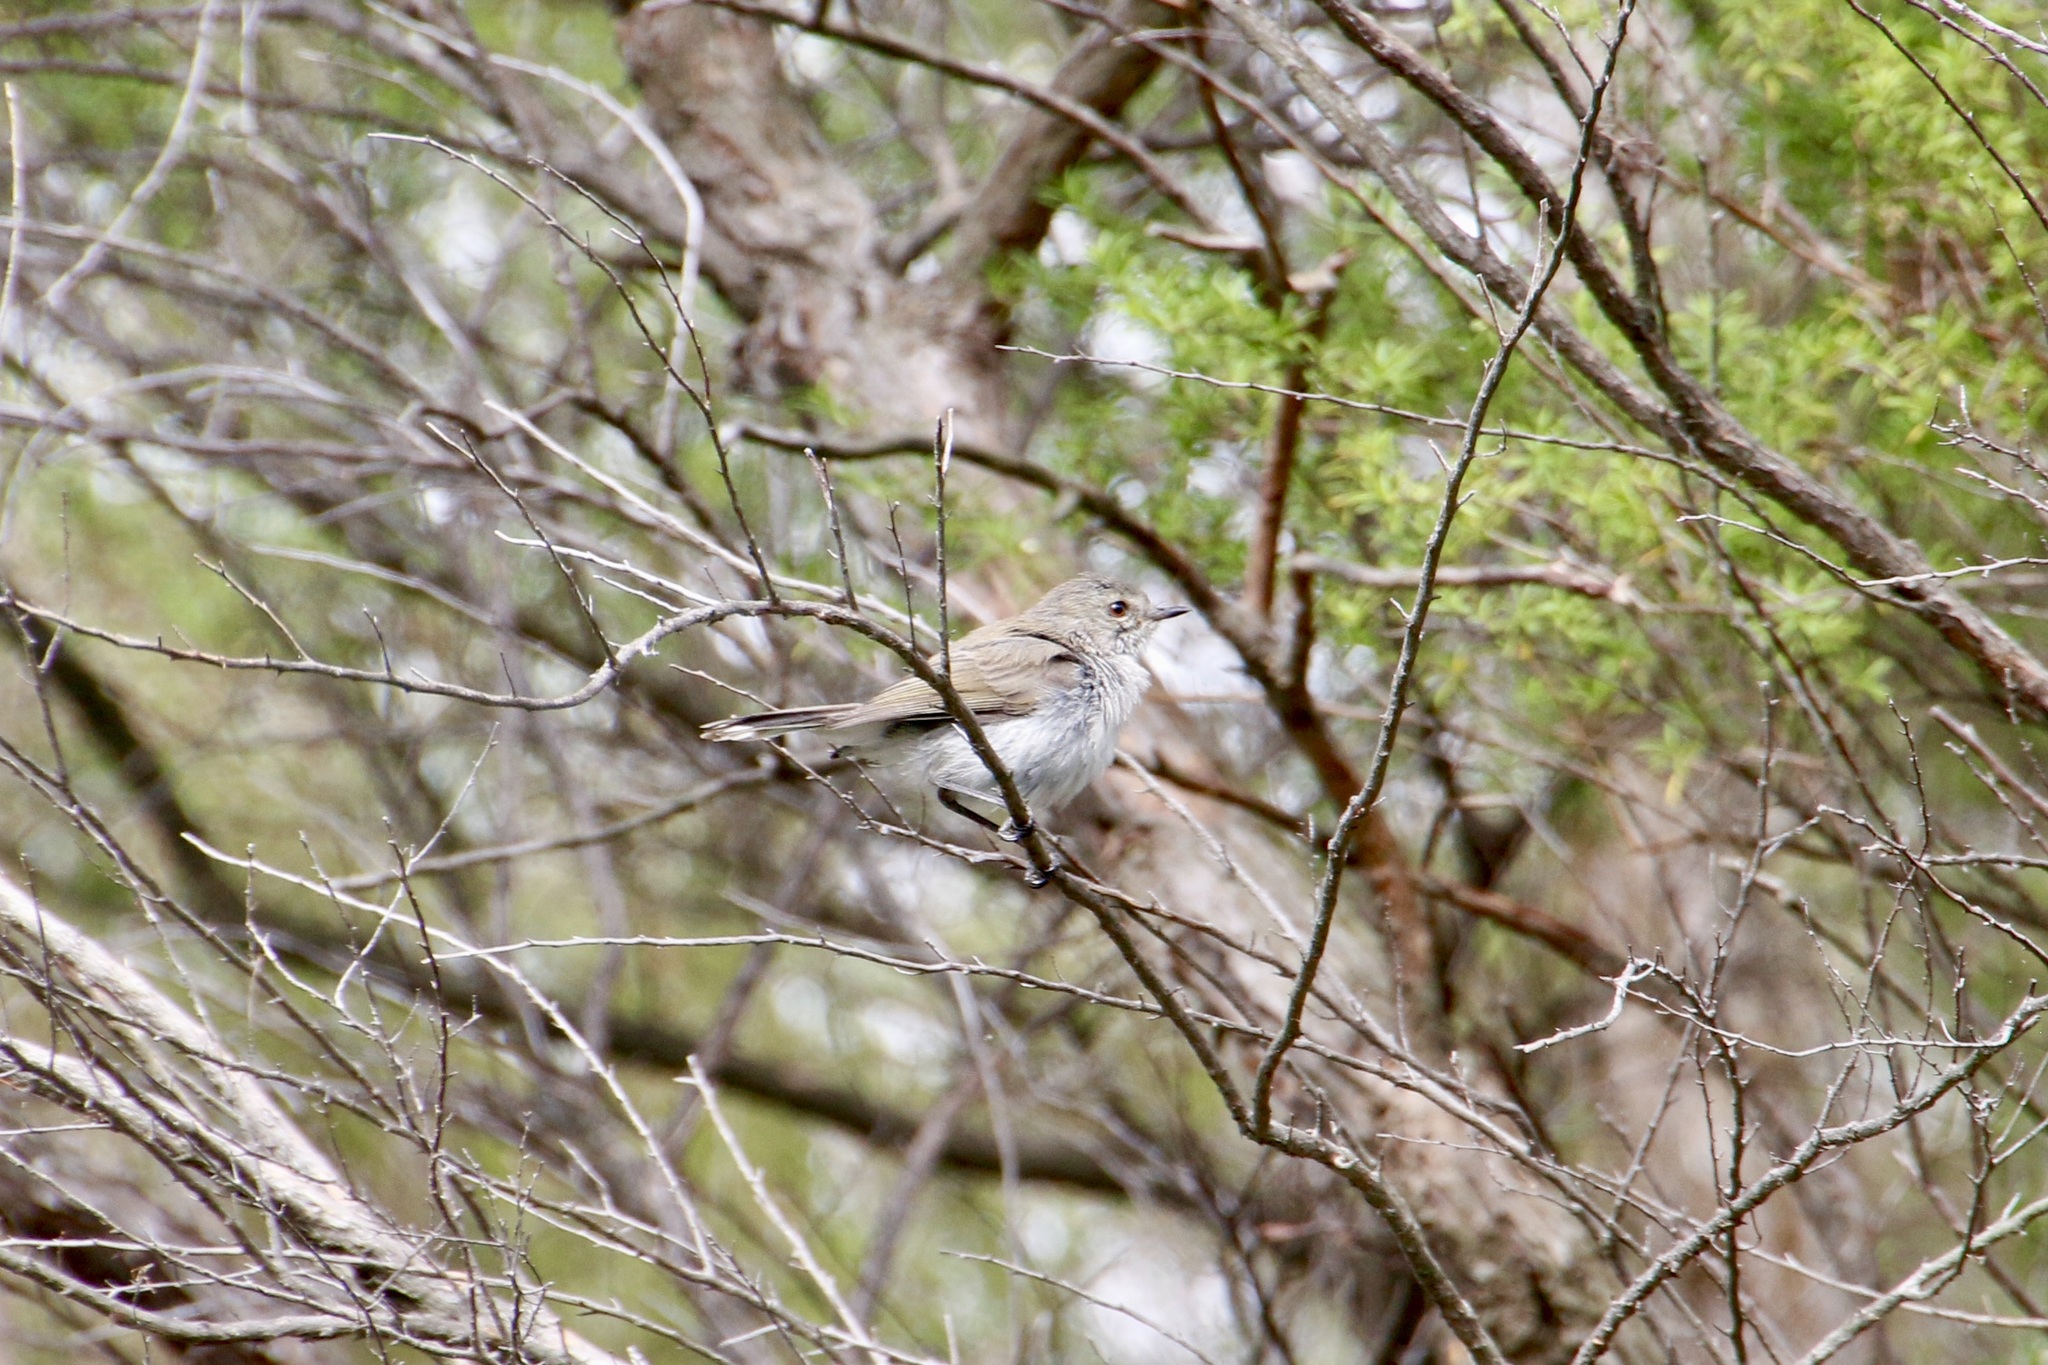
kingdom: Animalia
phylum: Chordata
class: Aves
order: Passeriformes
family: Acanthizidae
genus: Gerygone
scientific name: Gerygone igata
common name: Grey gerygone
